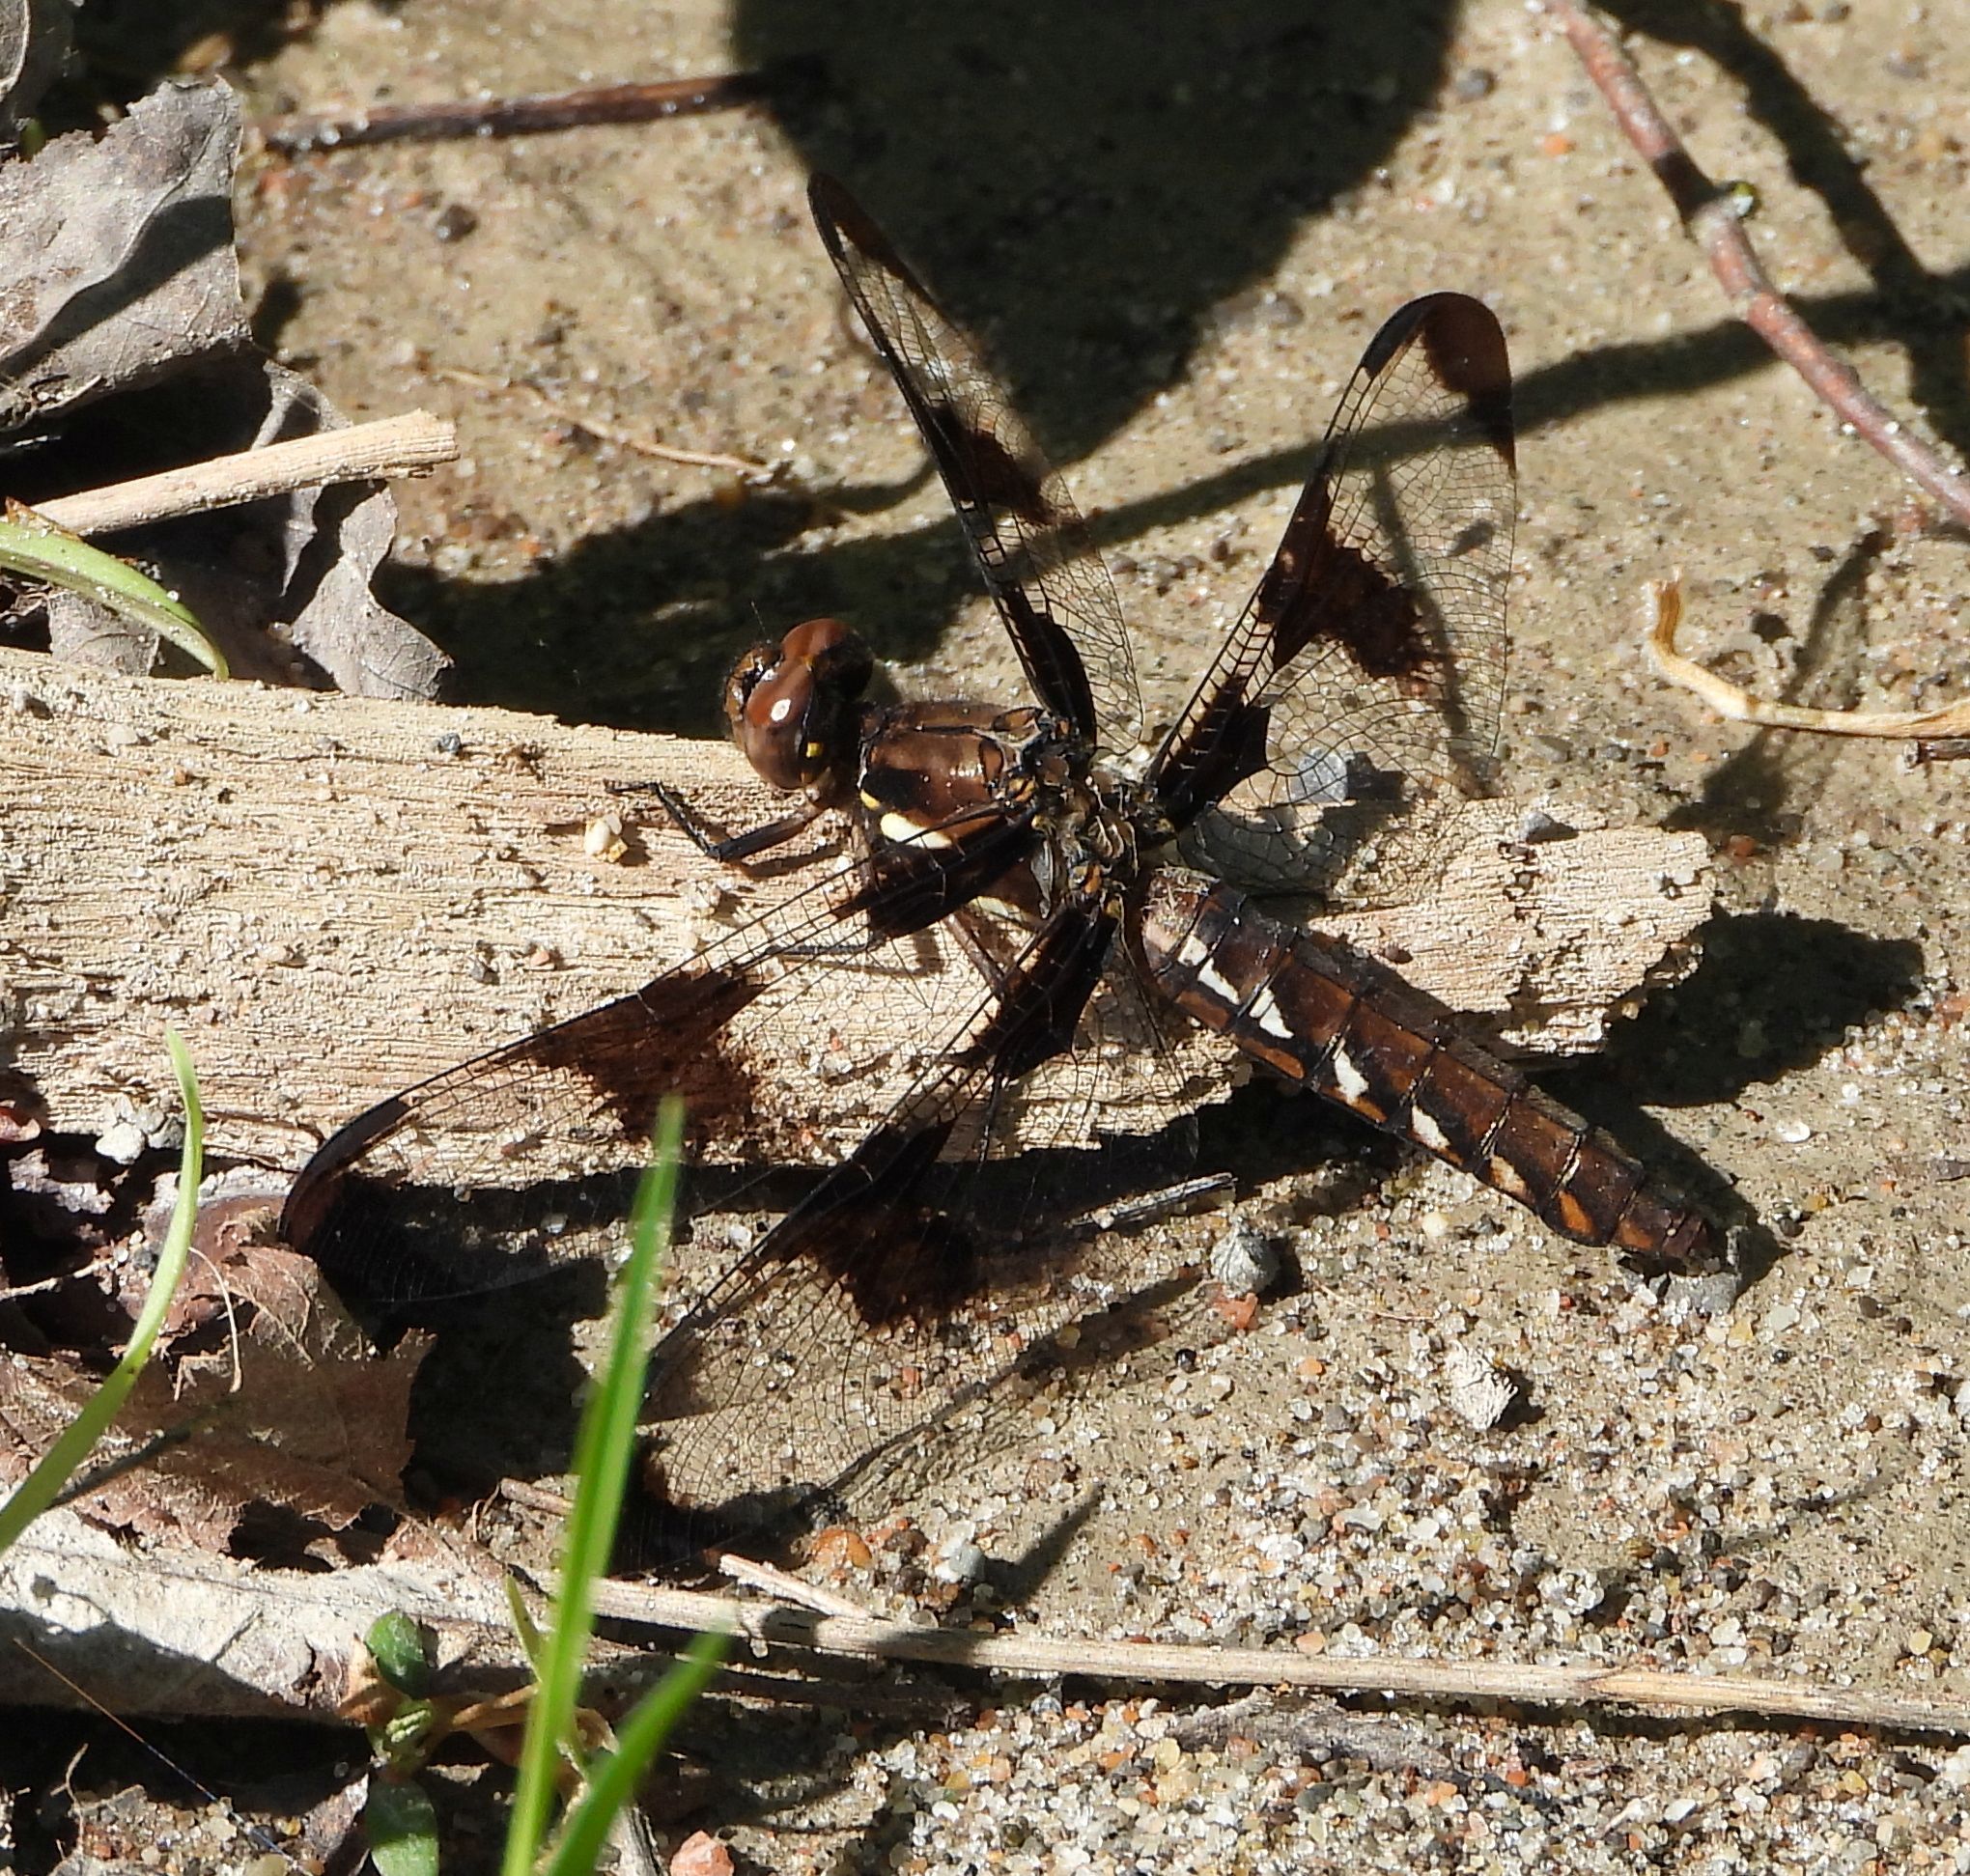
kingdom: Animalia
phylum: Arthropoda
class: Insecta
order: Odonata
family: Libellulidae
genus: Plathemis
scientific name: Plathemis lydia
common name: Common whitetail
